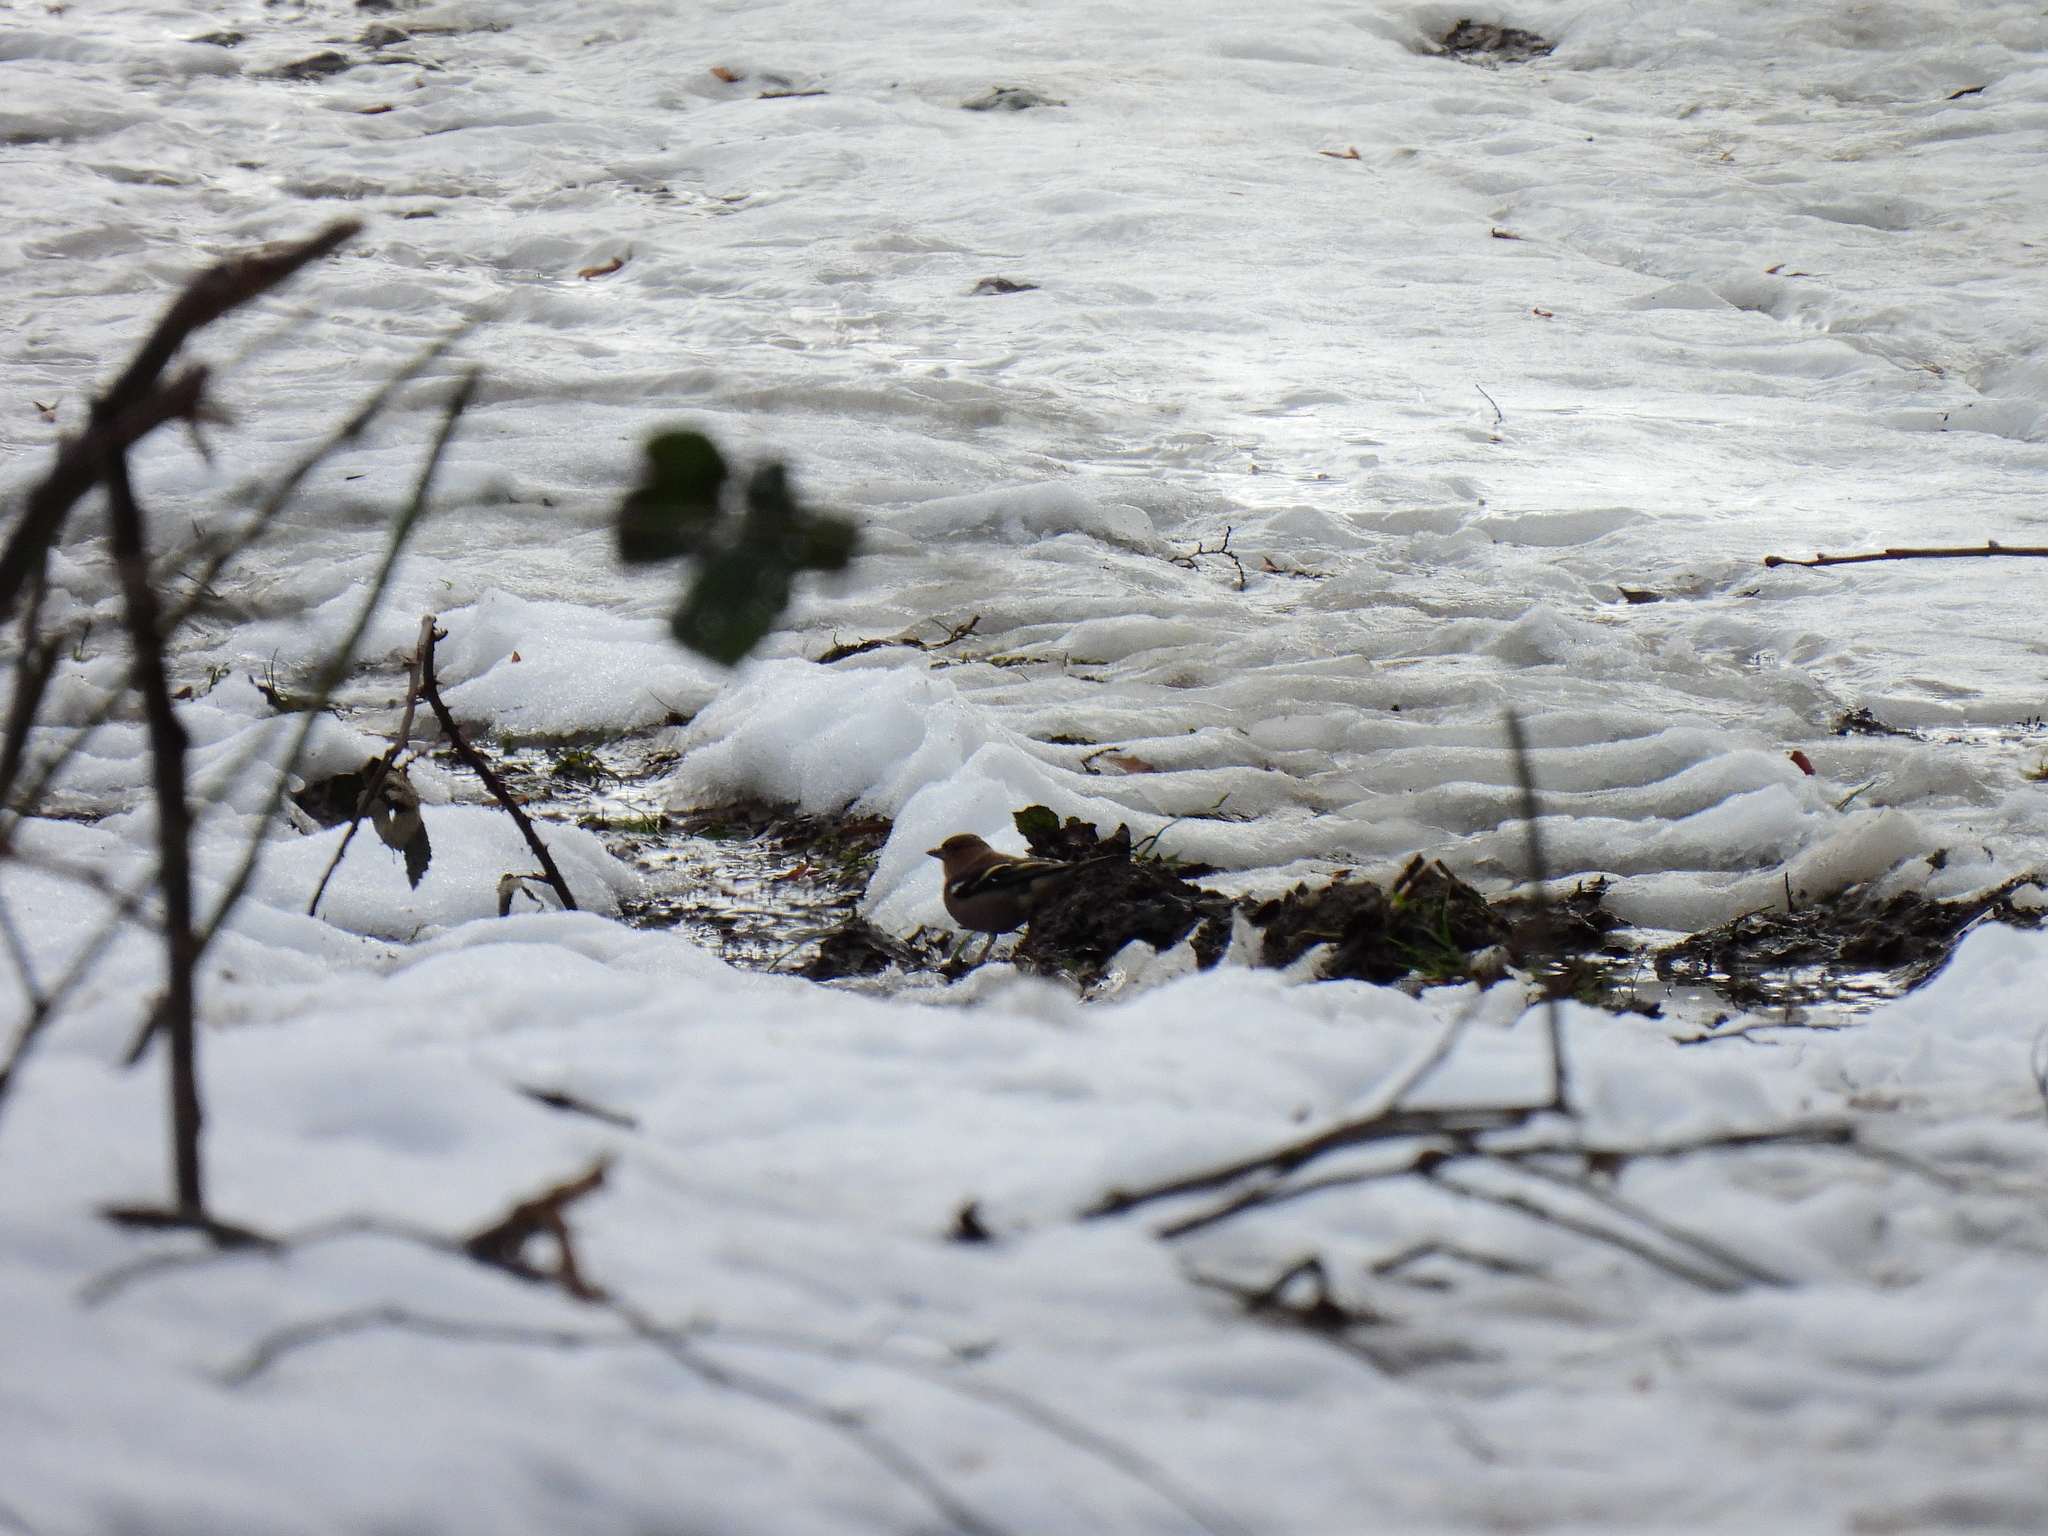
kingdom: Animalia
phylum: Chordata
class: Aves
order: Passeriformes
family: Fringillidae
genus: Fringilla
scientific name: Fringilla coelebs
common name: Common chaffinch
